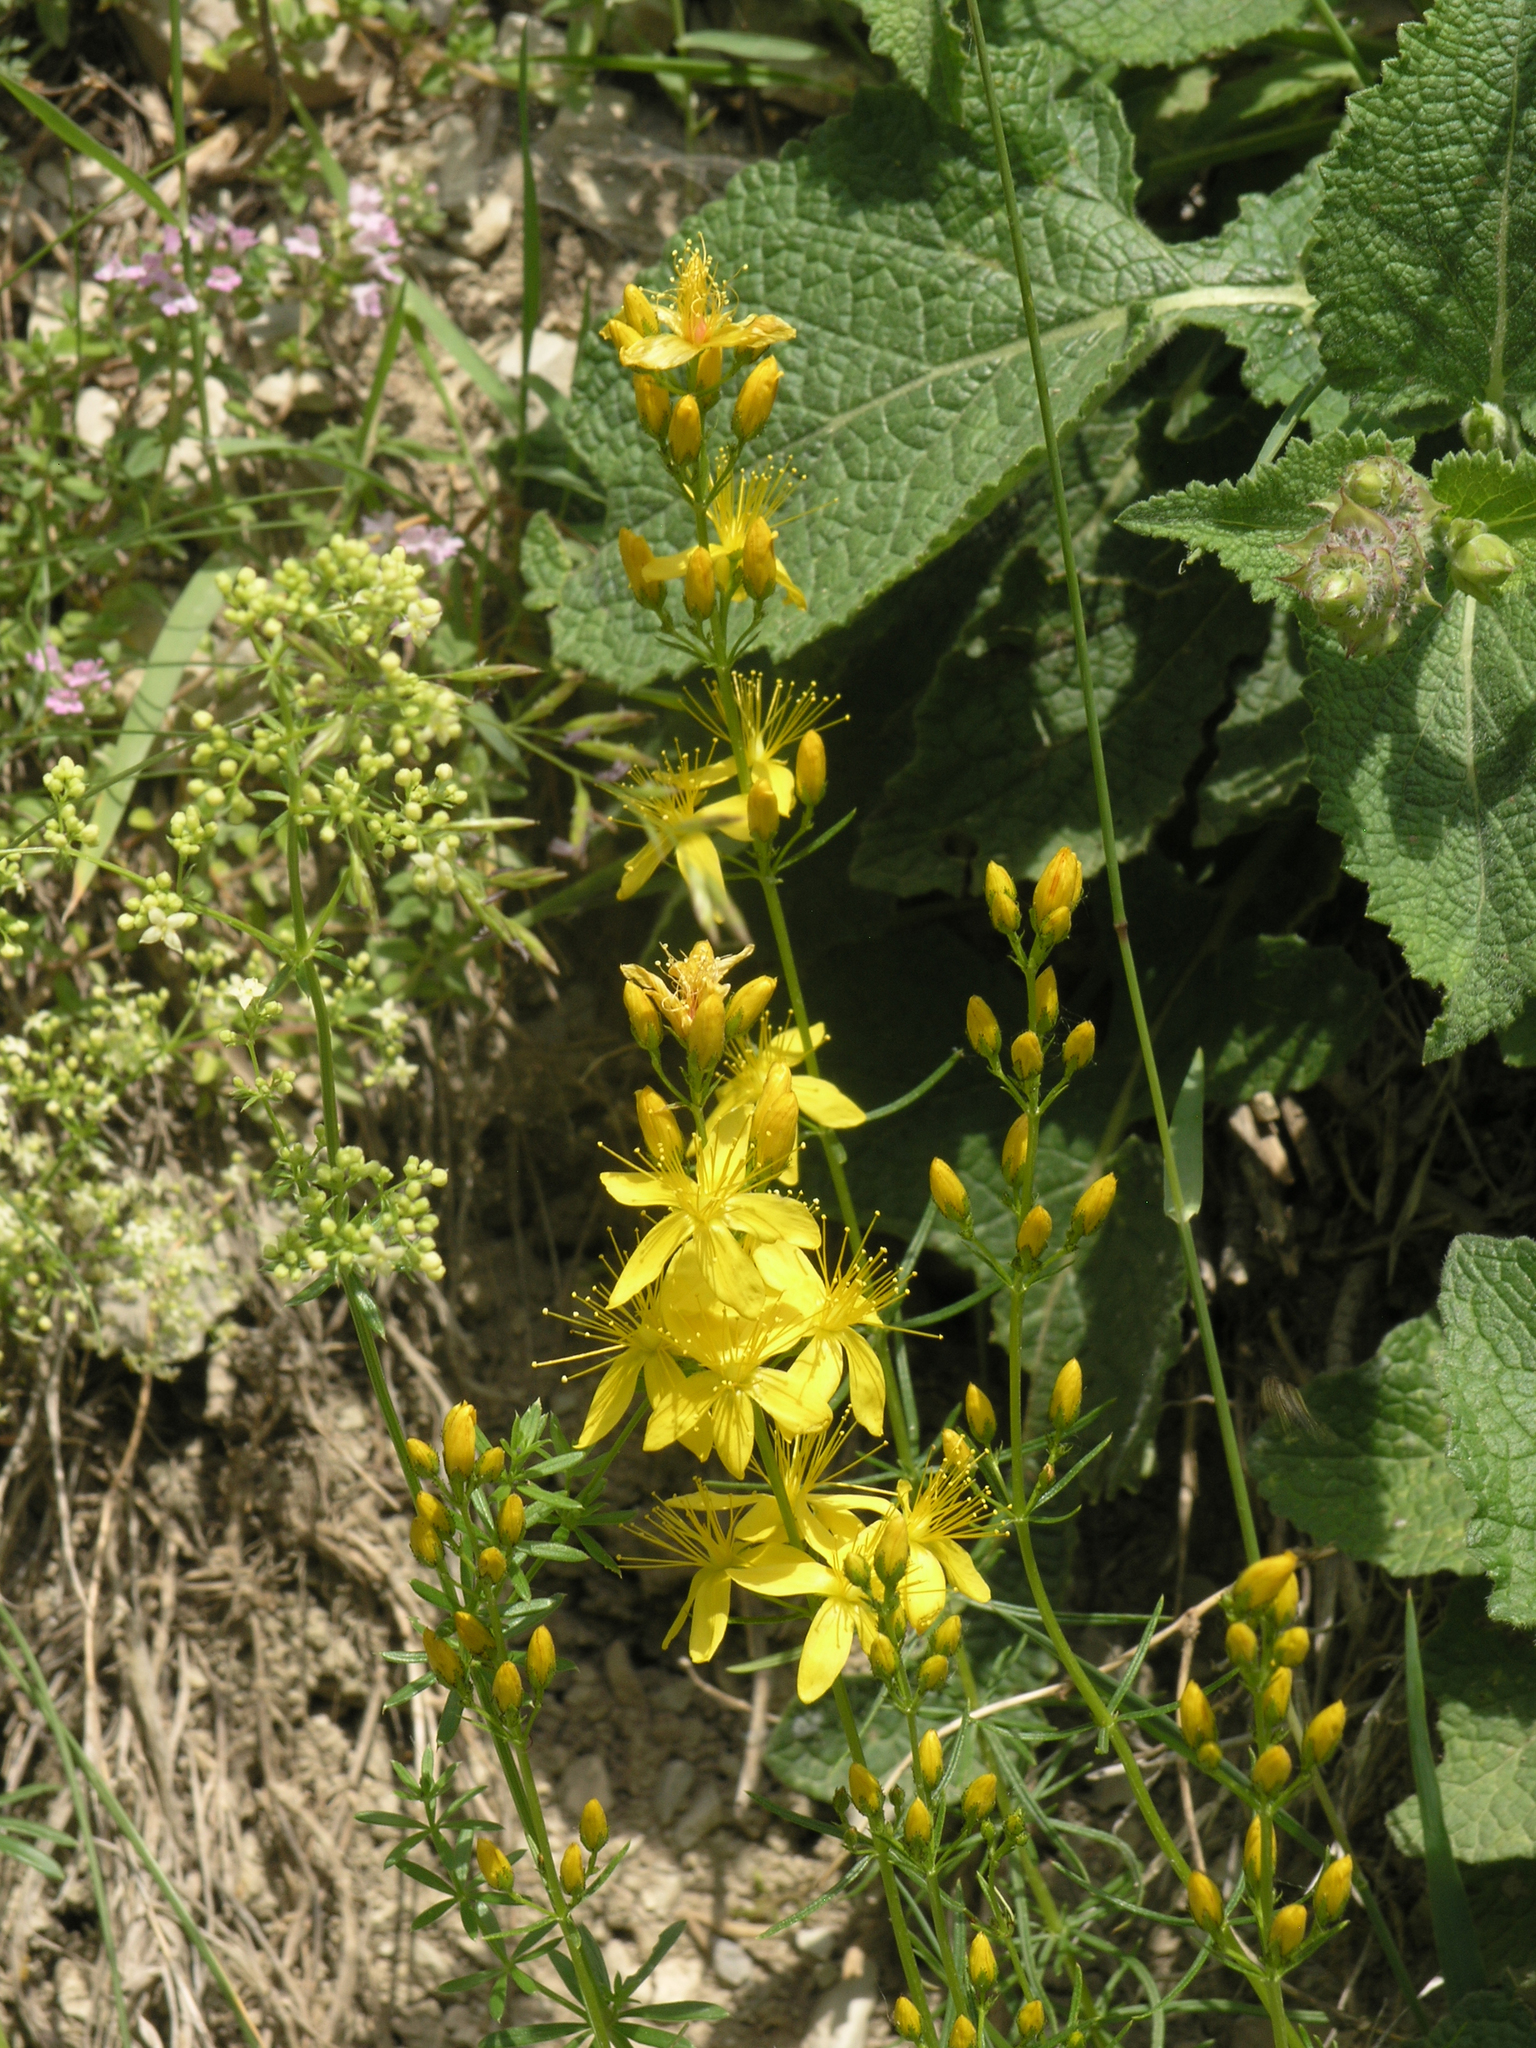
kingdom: Plantae
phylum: Tracheophyta
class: Magnoliopsida
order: Malpighiales
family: Hypericaceae
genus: Hypericum
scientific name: Hypericum asperuloides
